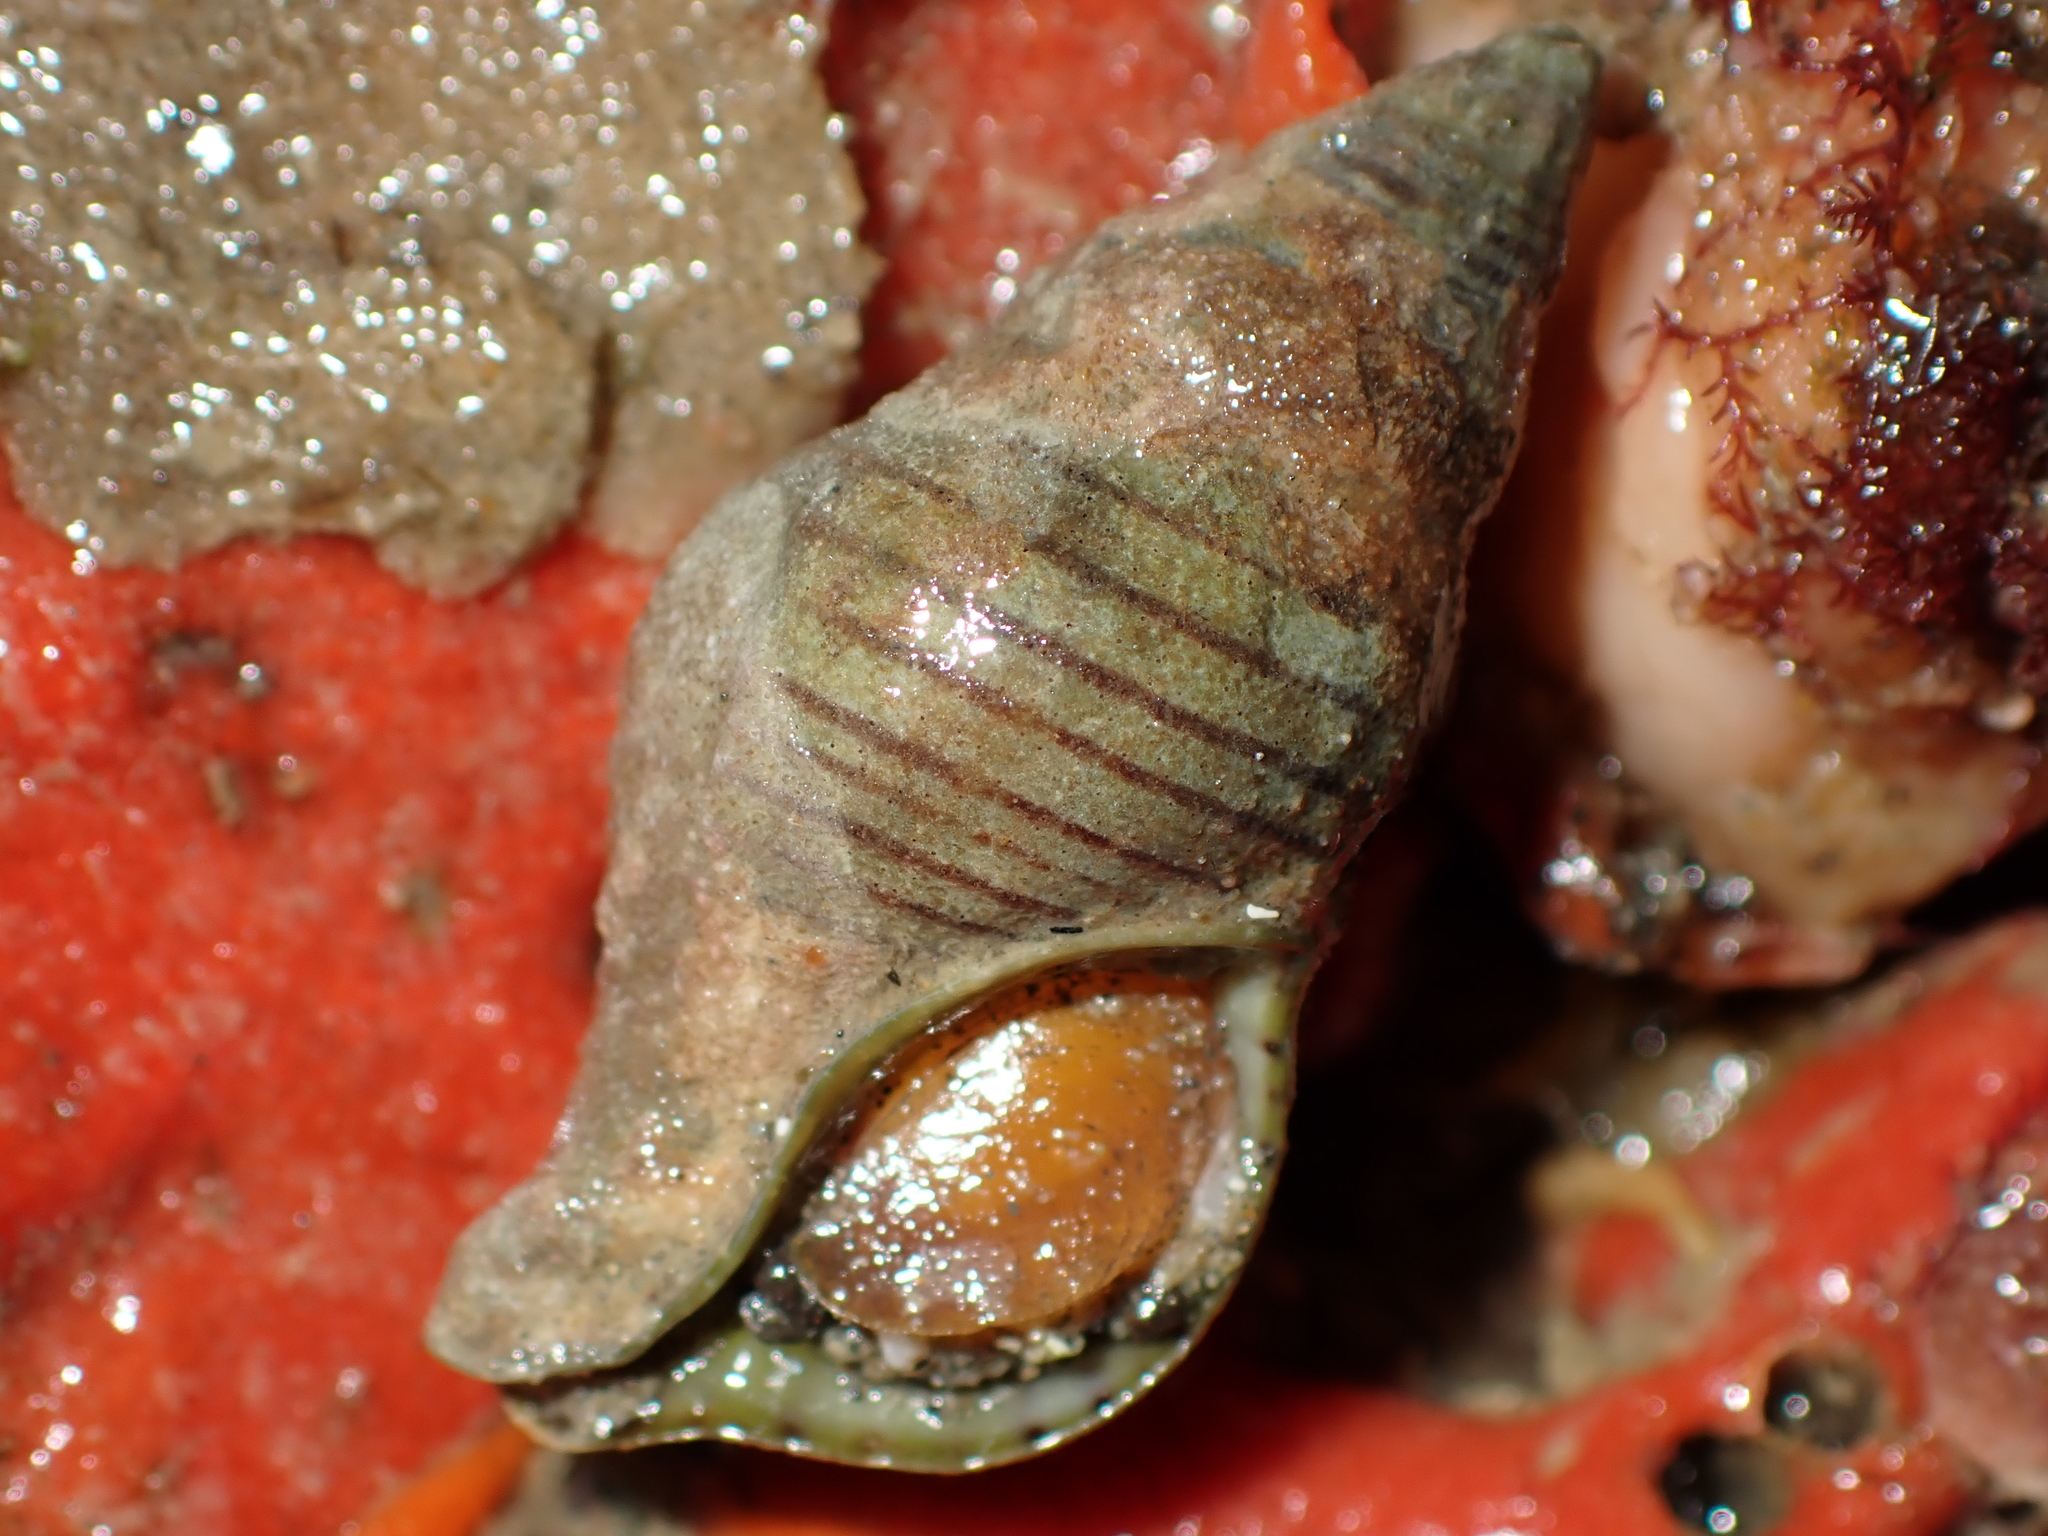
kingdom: Animalia
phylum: Mollusca
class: Gastropoda
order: Neogastropoda
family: Tudiclidae
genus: Buccinulum
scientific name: Buccinulum linea
